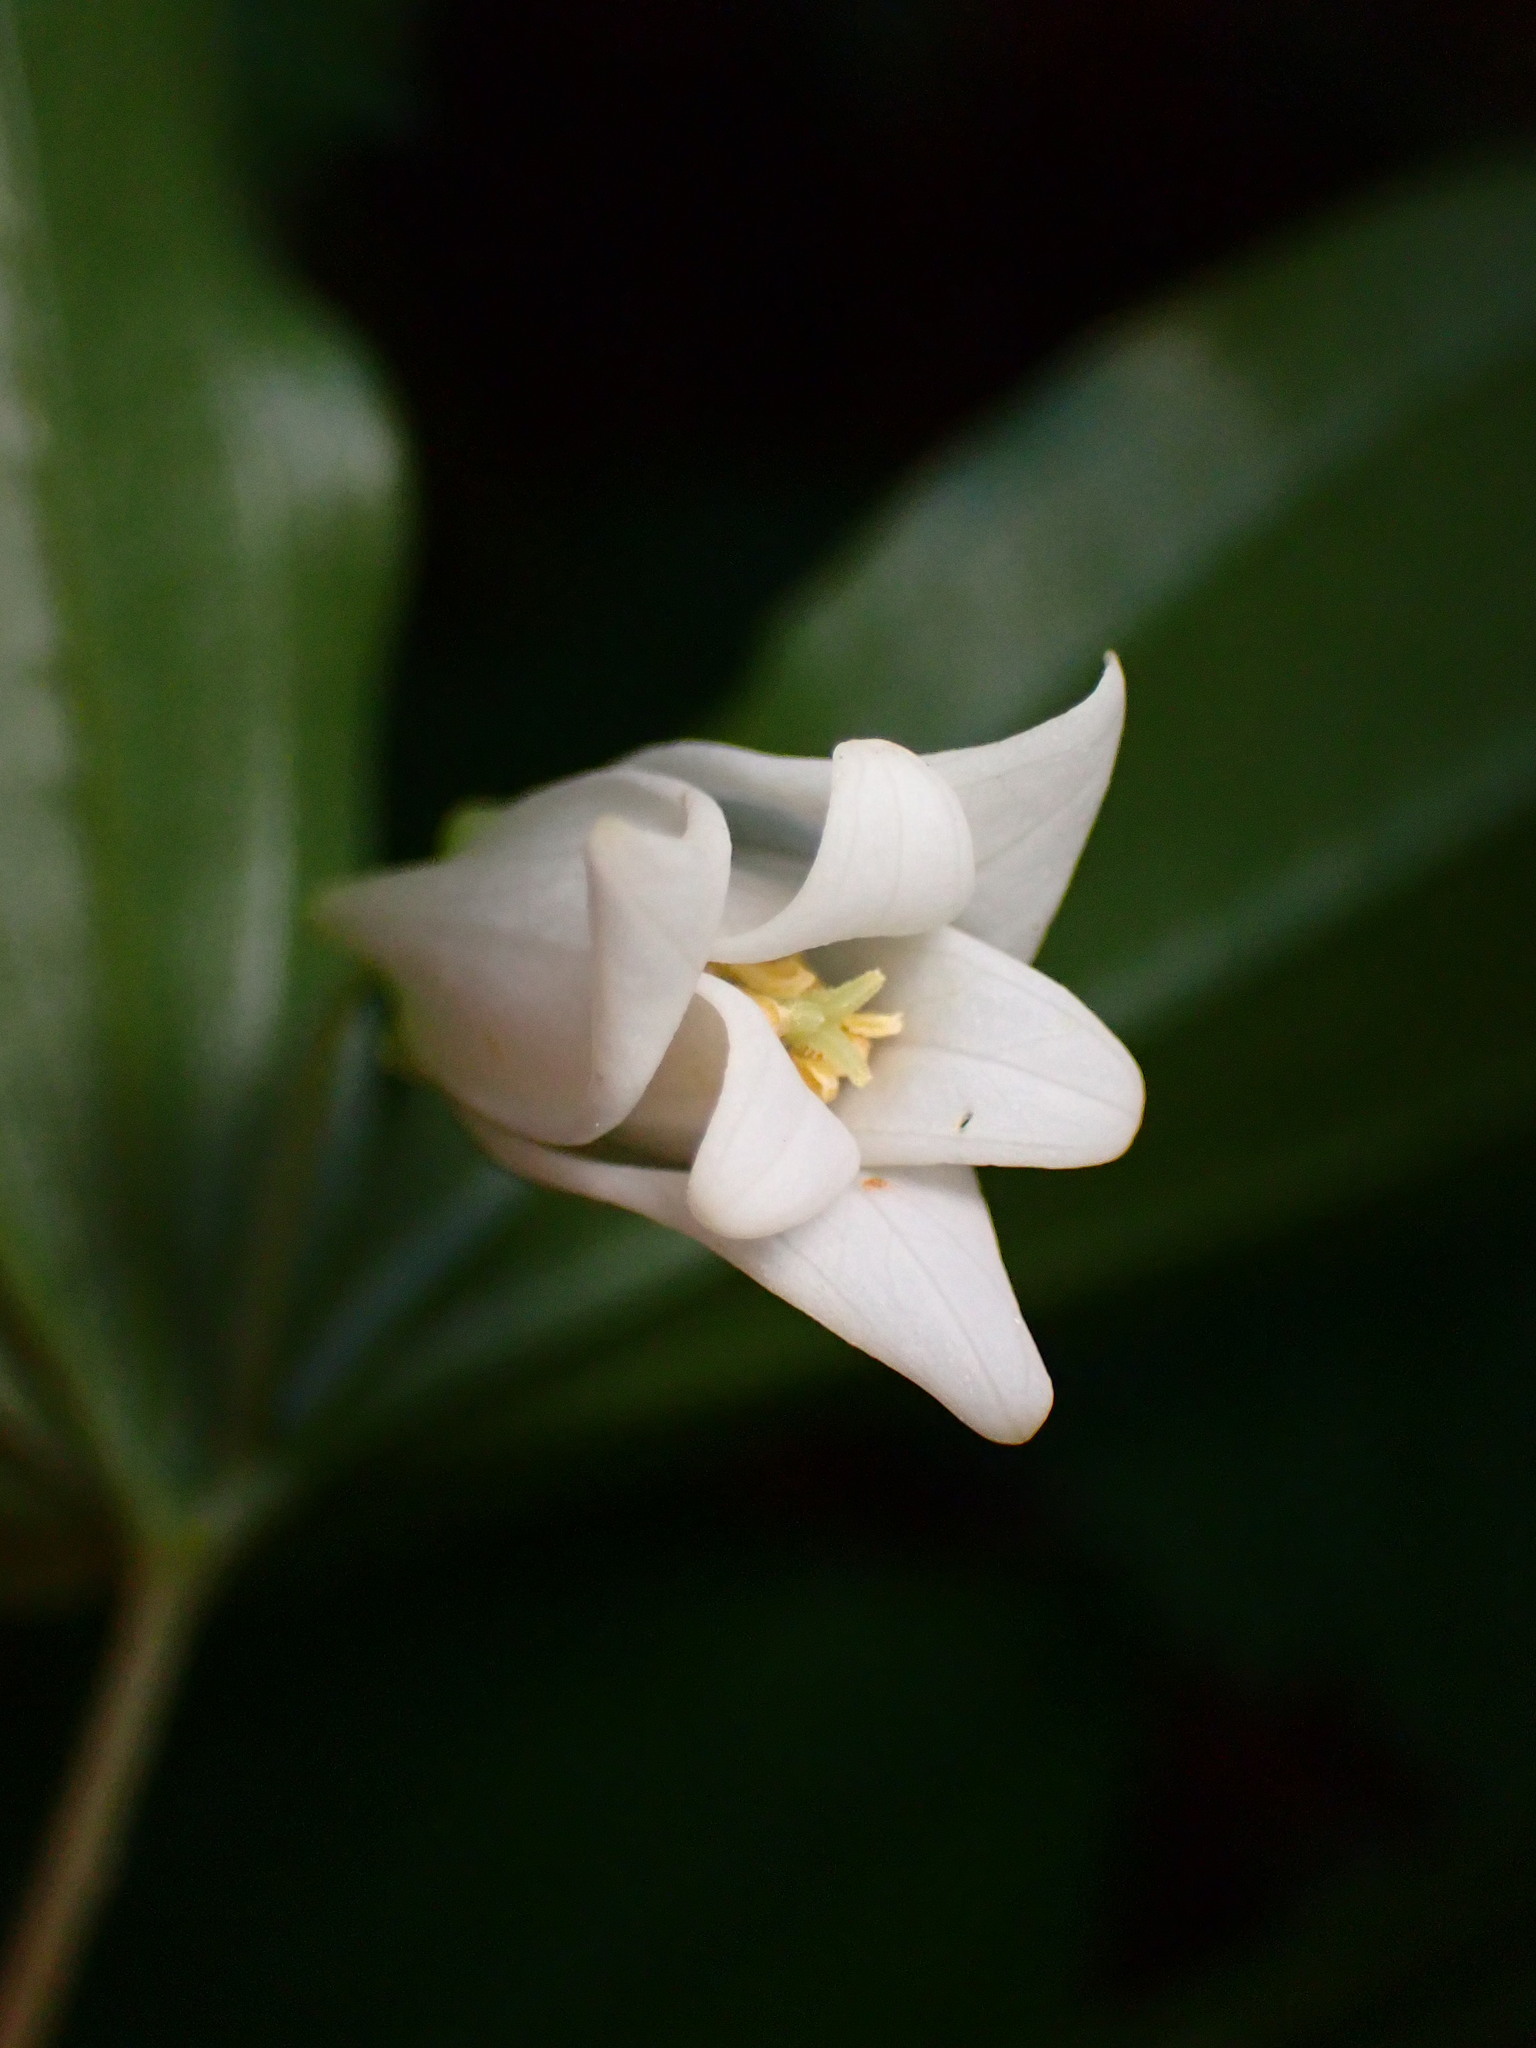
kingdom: Plantae
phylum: Tracheophyta
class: Liliopsida
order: Liliales
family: Liliaceae
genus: Prosartes
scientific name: Prosartes smithii
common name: Fairy-lantern
